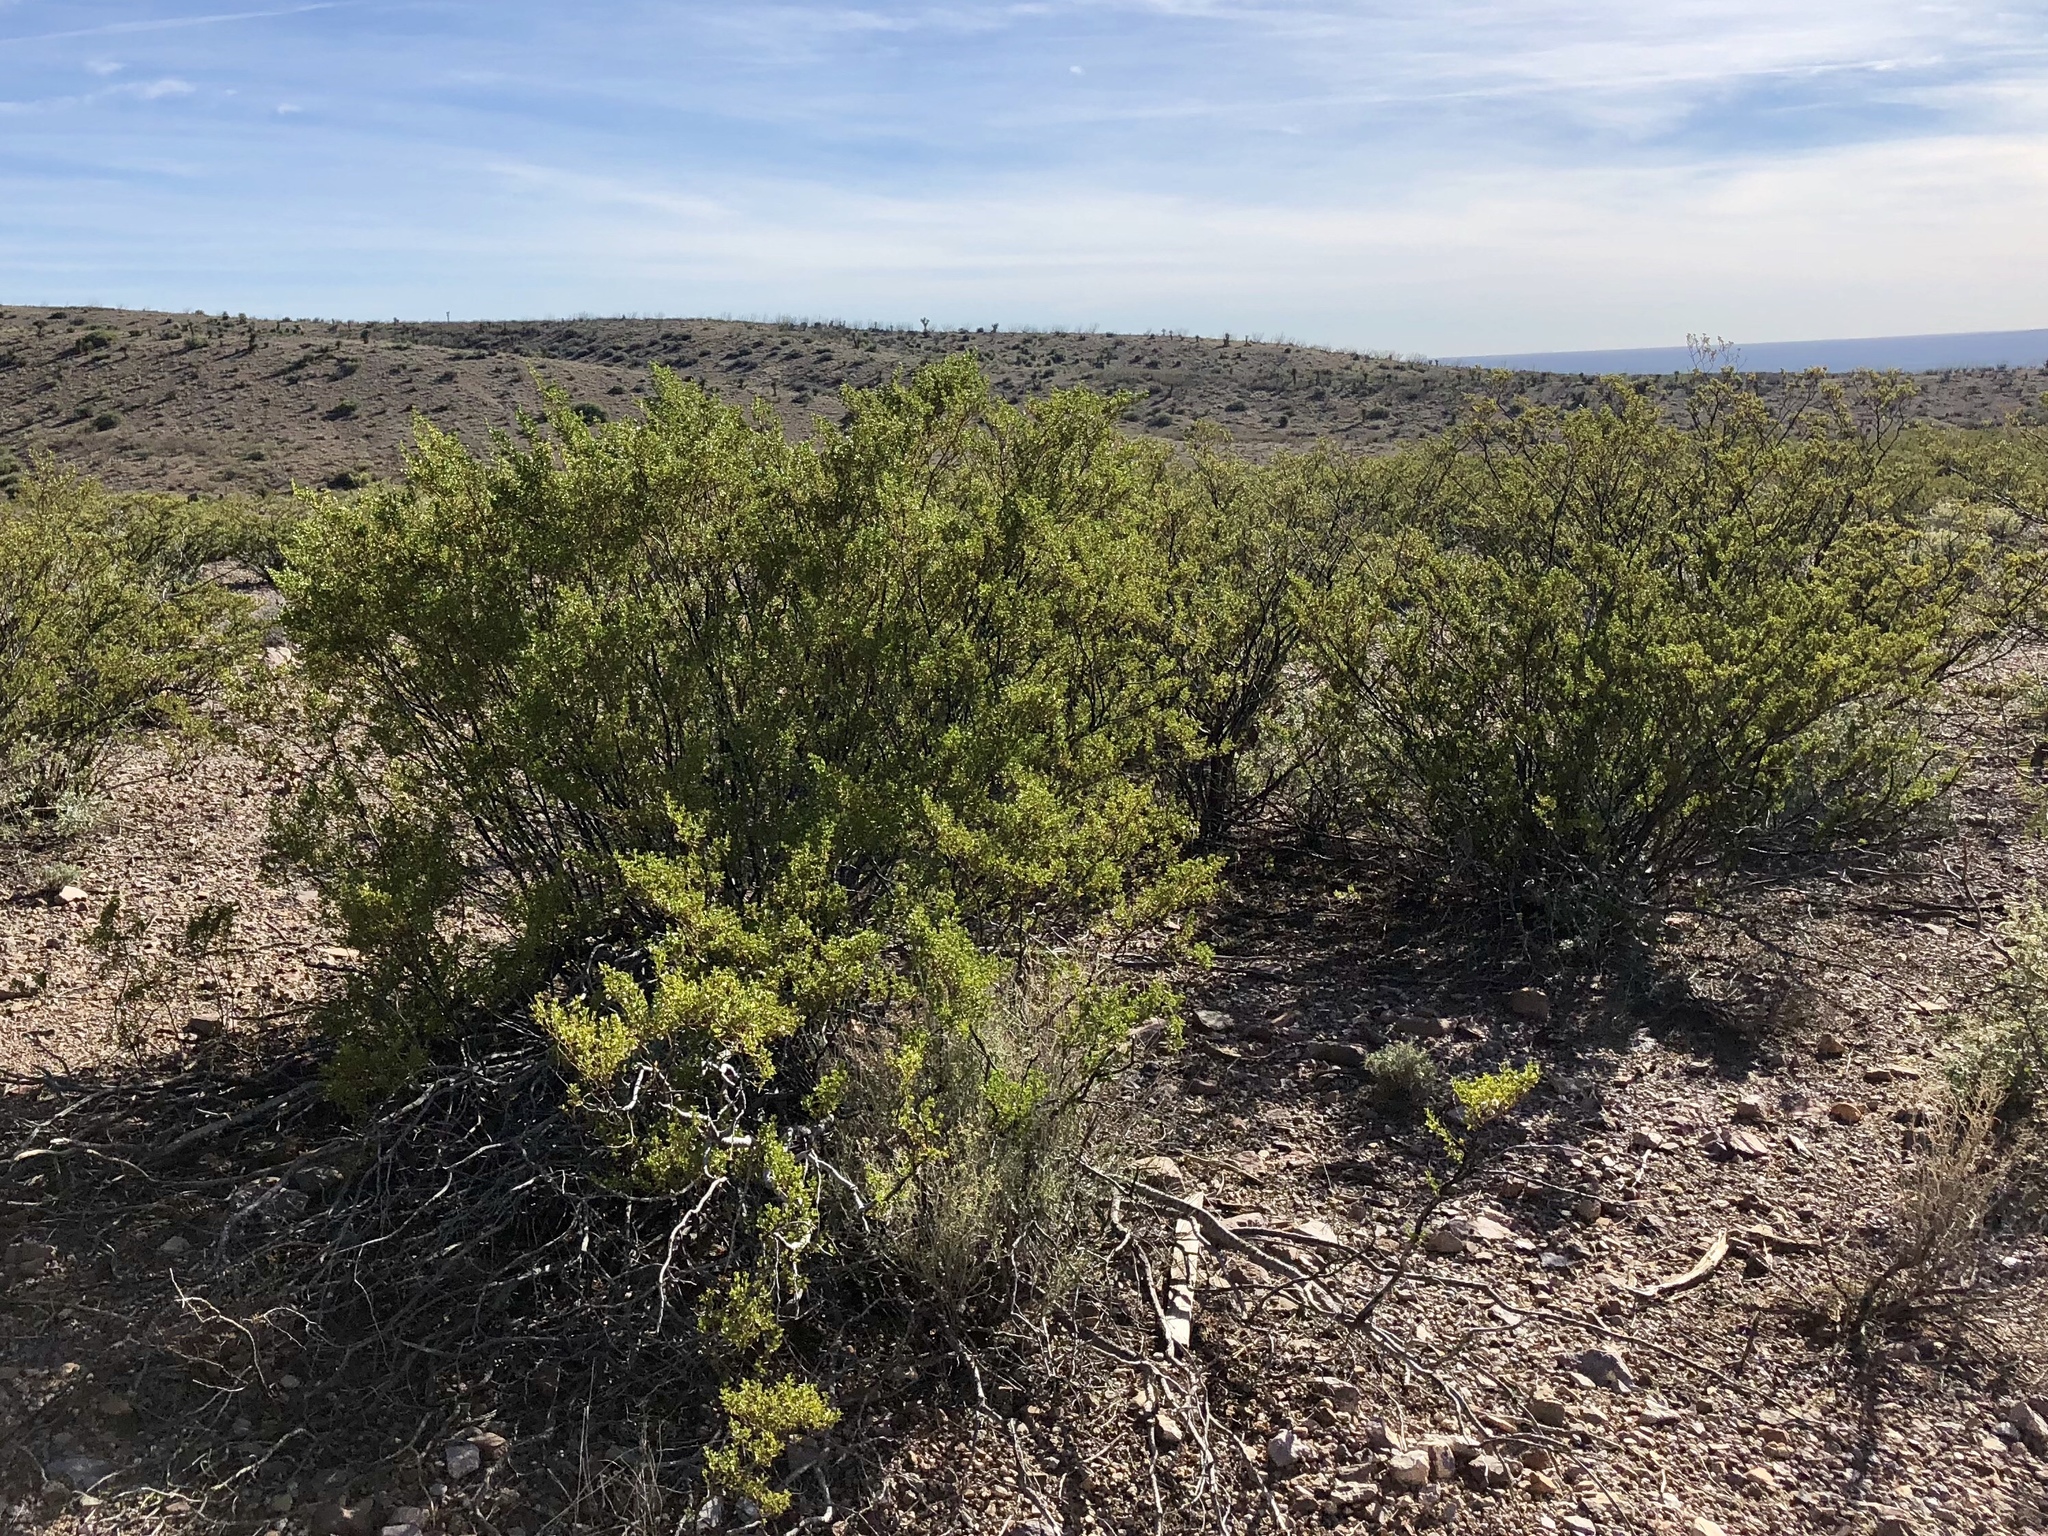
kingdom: Plantae
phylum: Tracheophyta
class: Magnoliopsida
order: Zygophyllales
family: Zygophyllaceae
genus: Larrea
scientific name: Larrea tridentata
